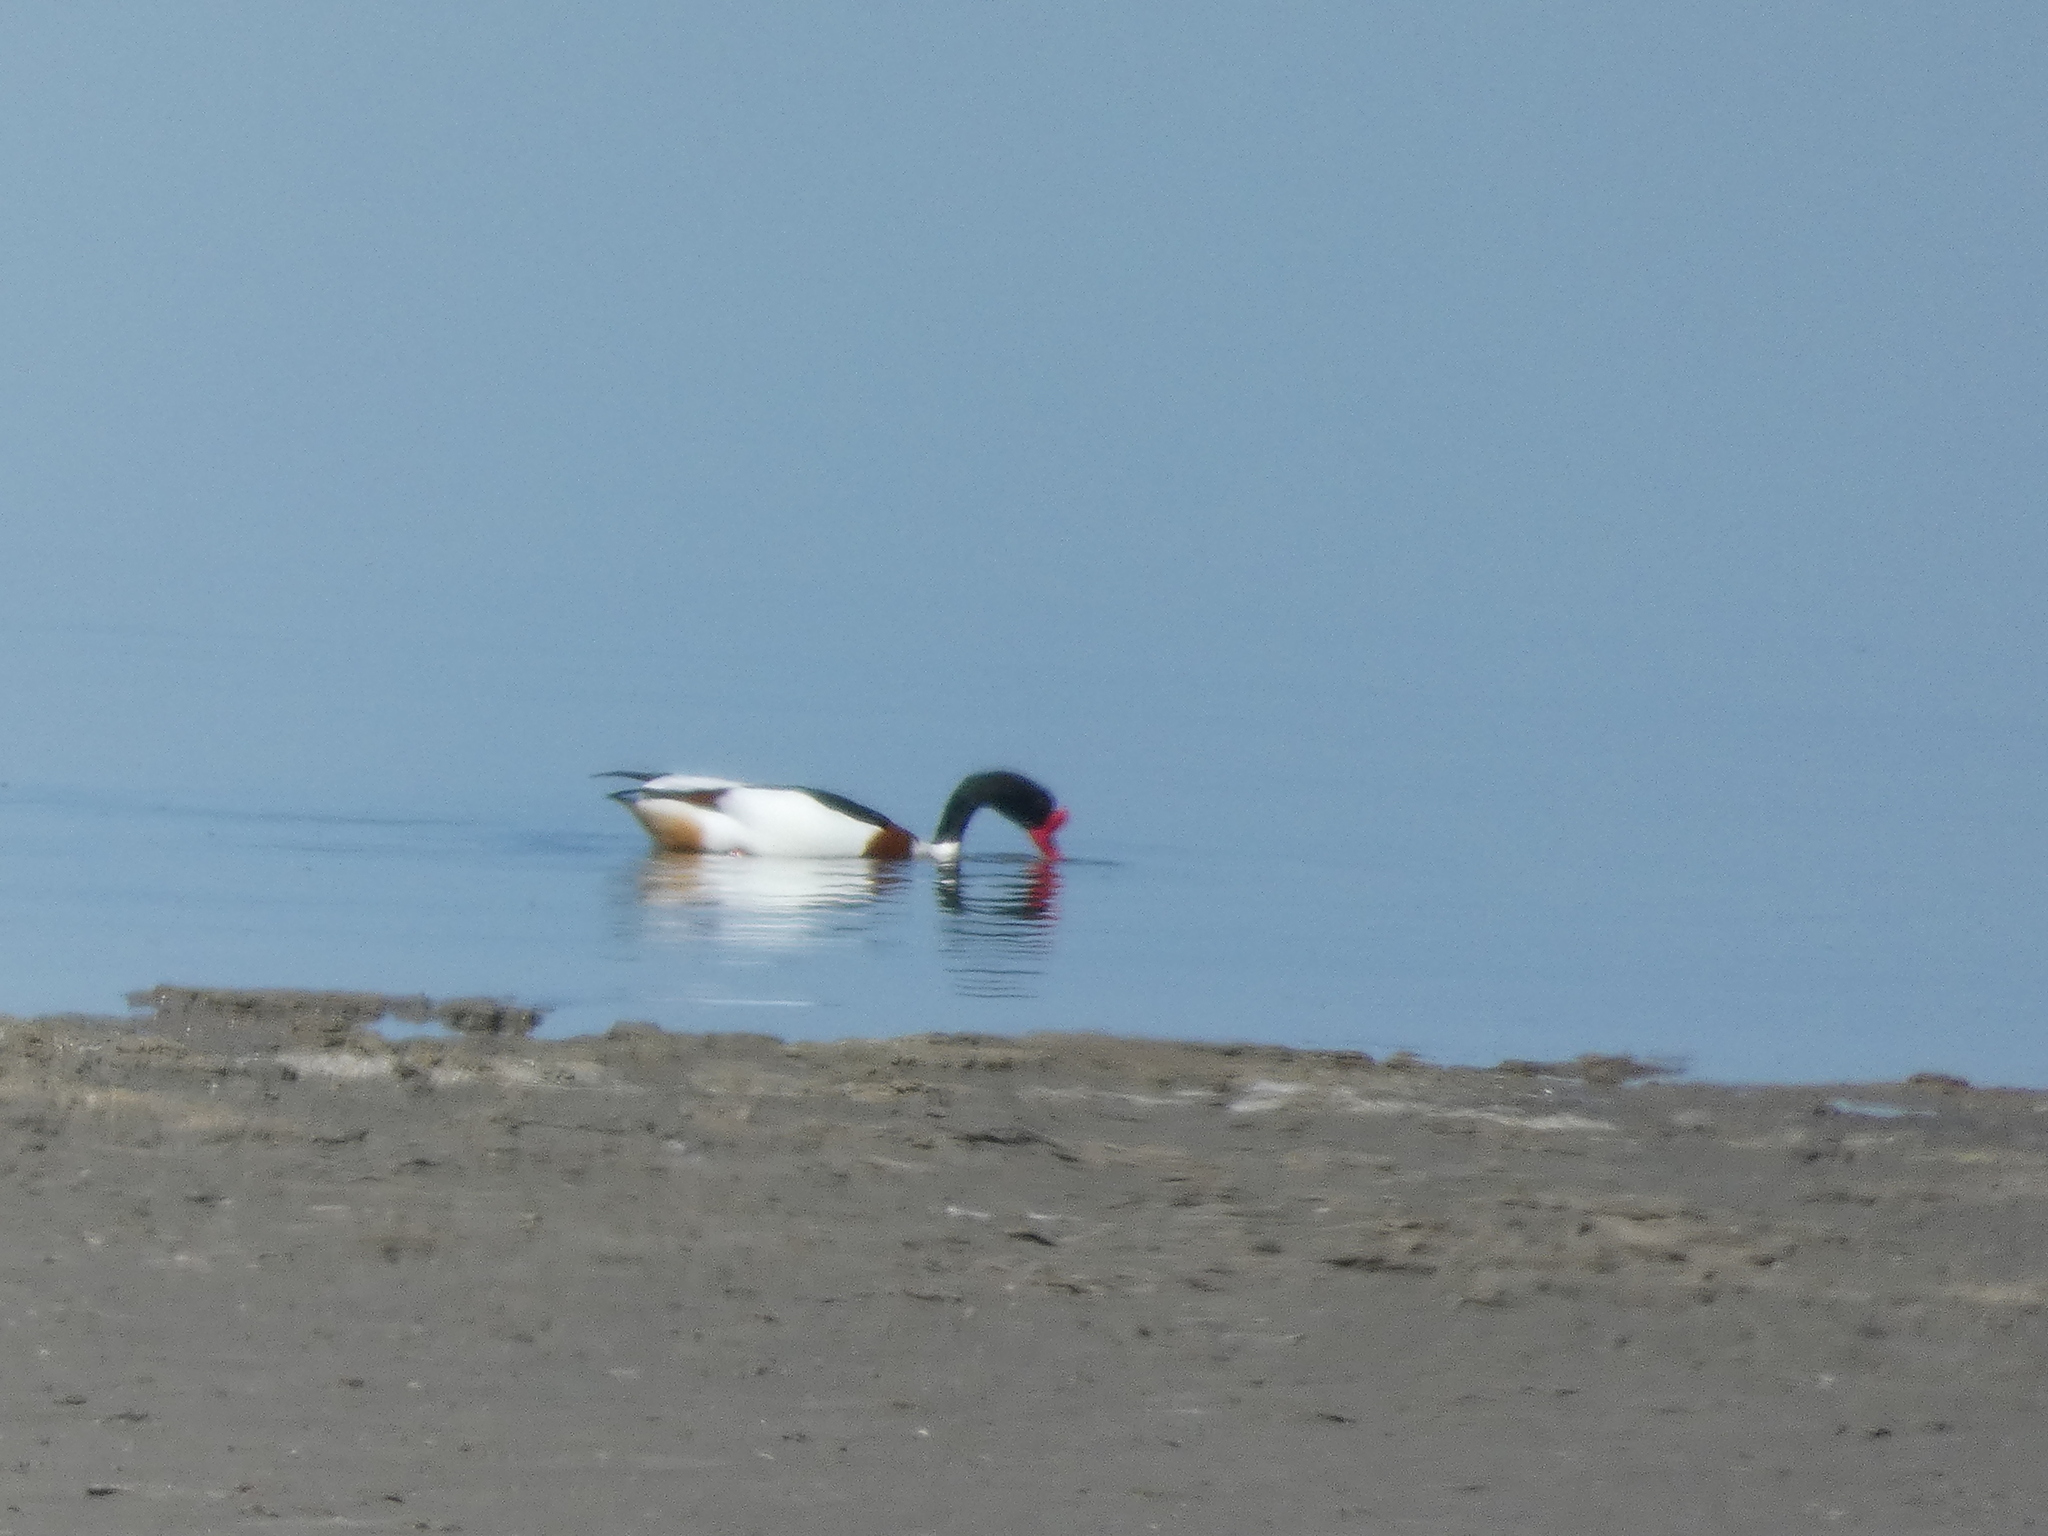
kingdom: Animalia
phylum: Chordata
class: Aves
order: Anseriformes
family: Anatidae
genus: Tadorna
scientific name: Tadorna tadorna
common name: Common shelduck
